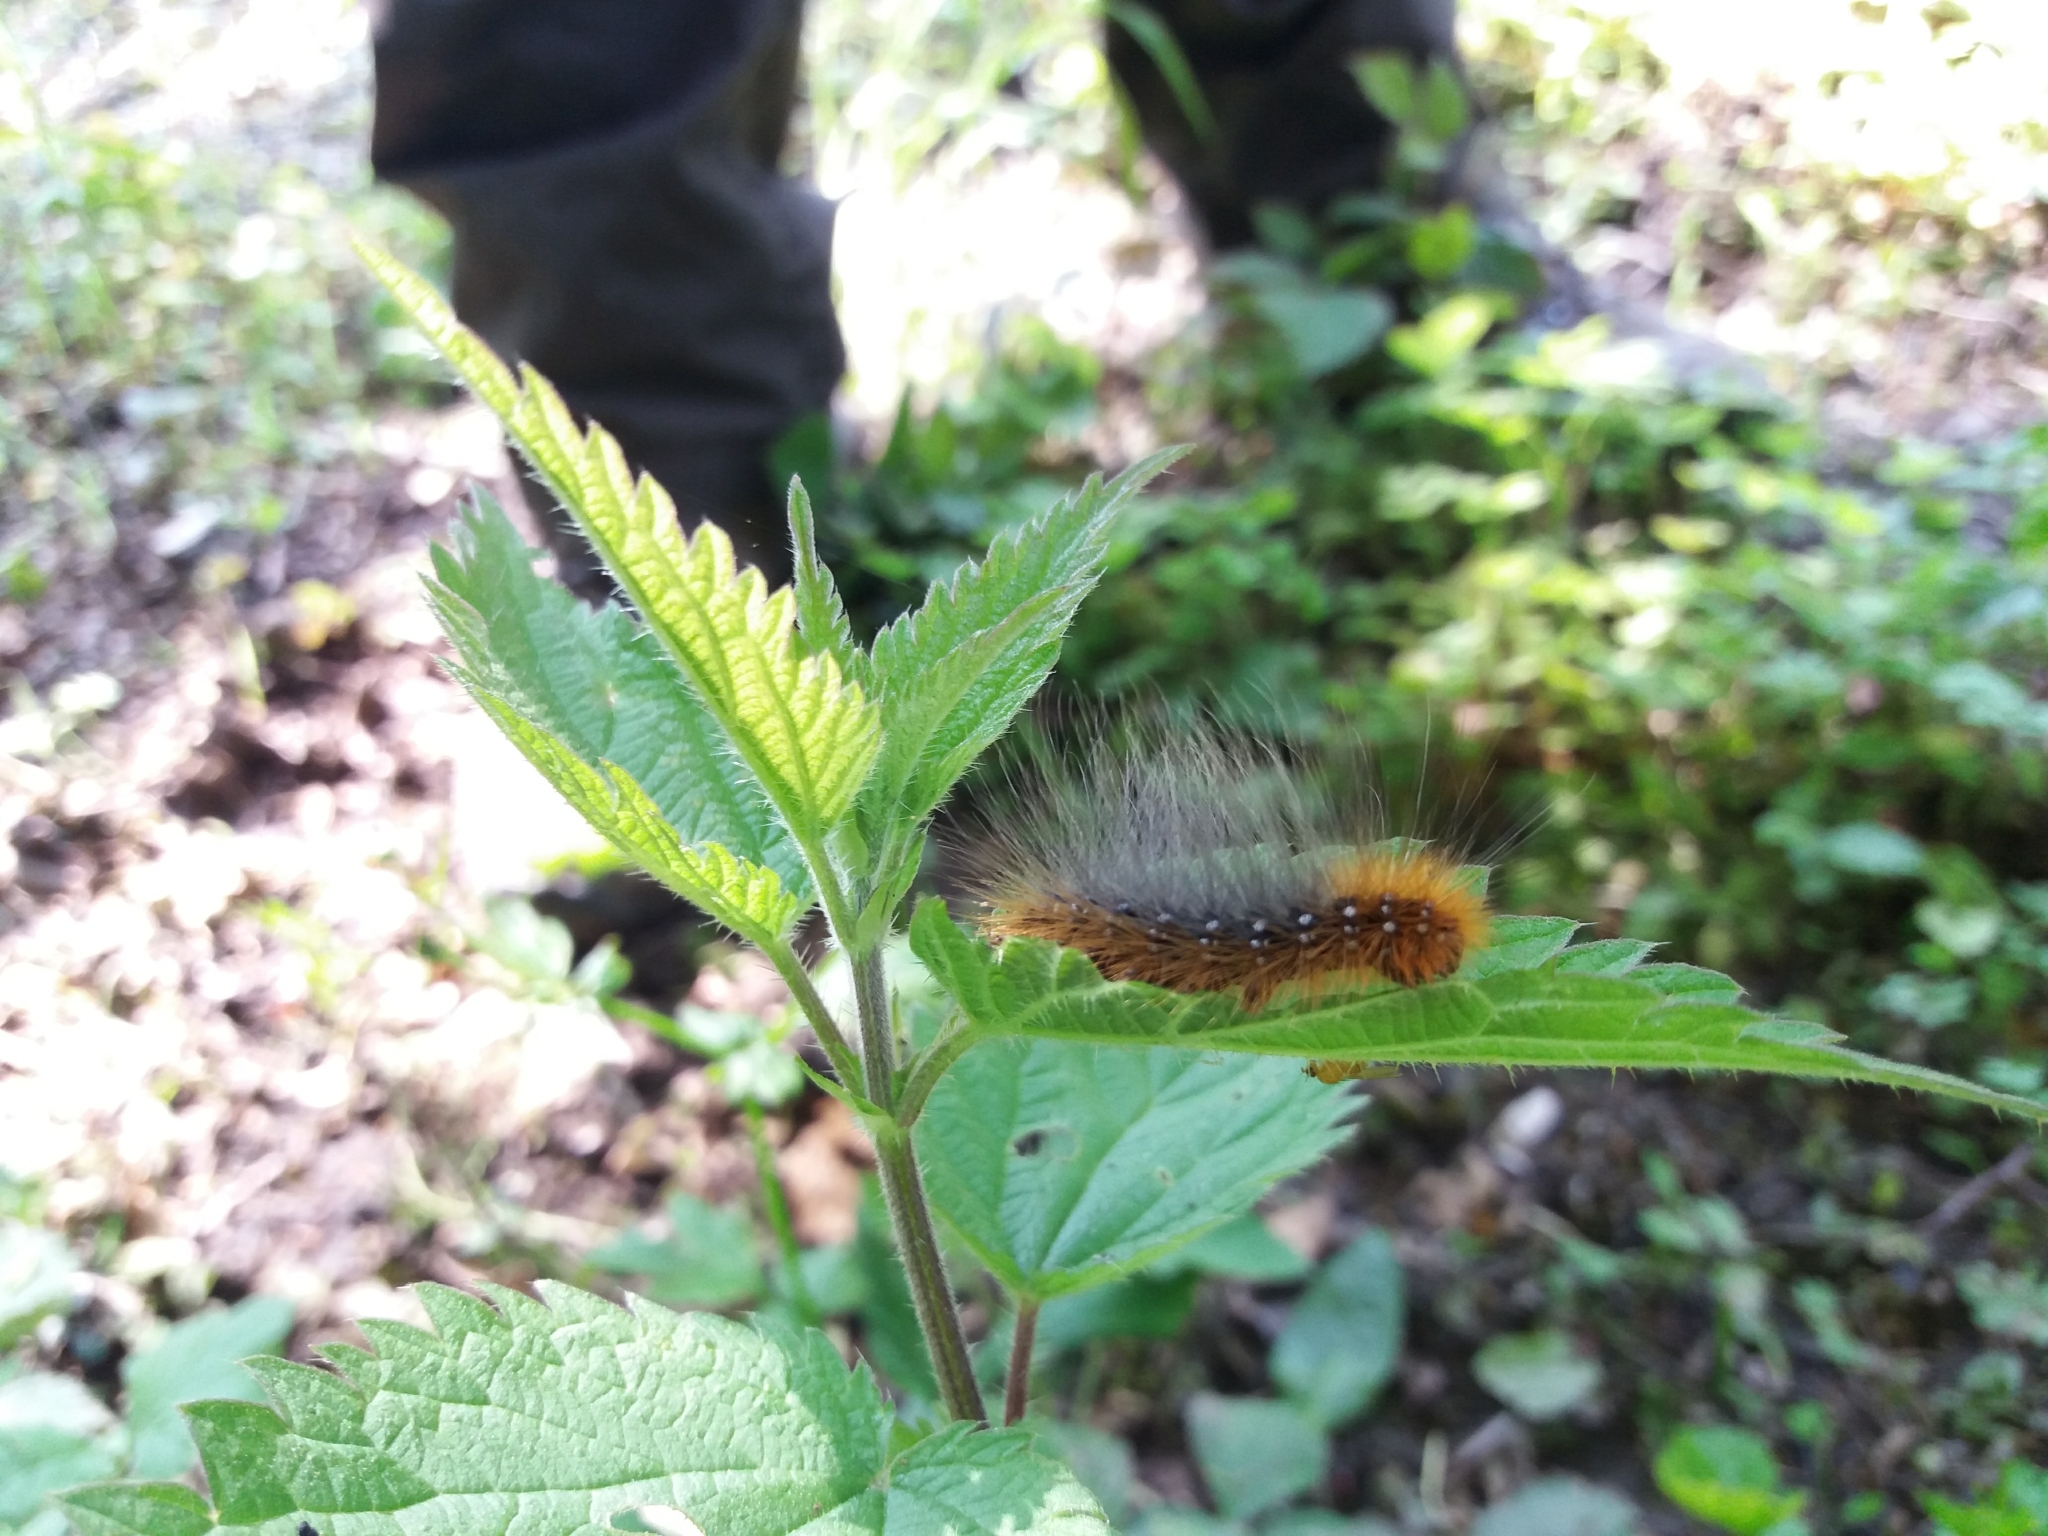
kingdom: Animalia
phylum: Arthropoda
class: Insecta
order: Lepidoptera
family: Erebidae
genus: Arctia
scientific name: Arctia caja
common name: Garden tiger
